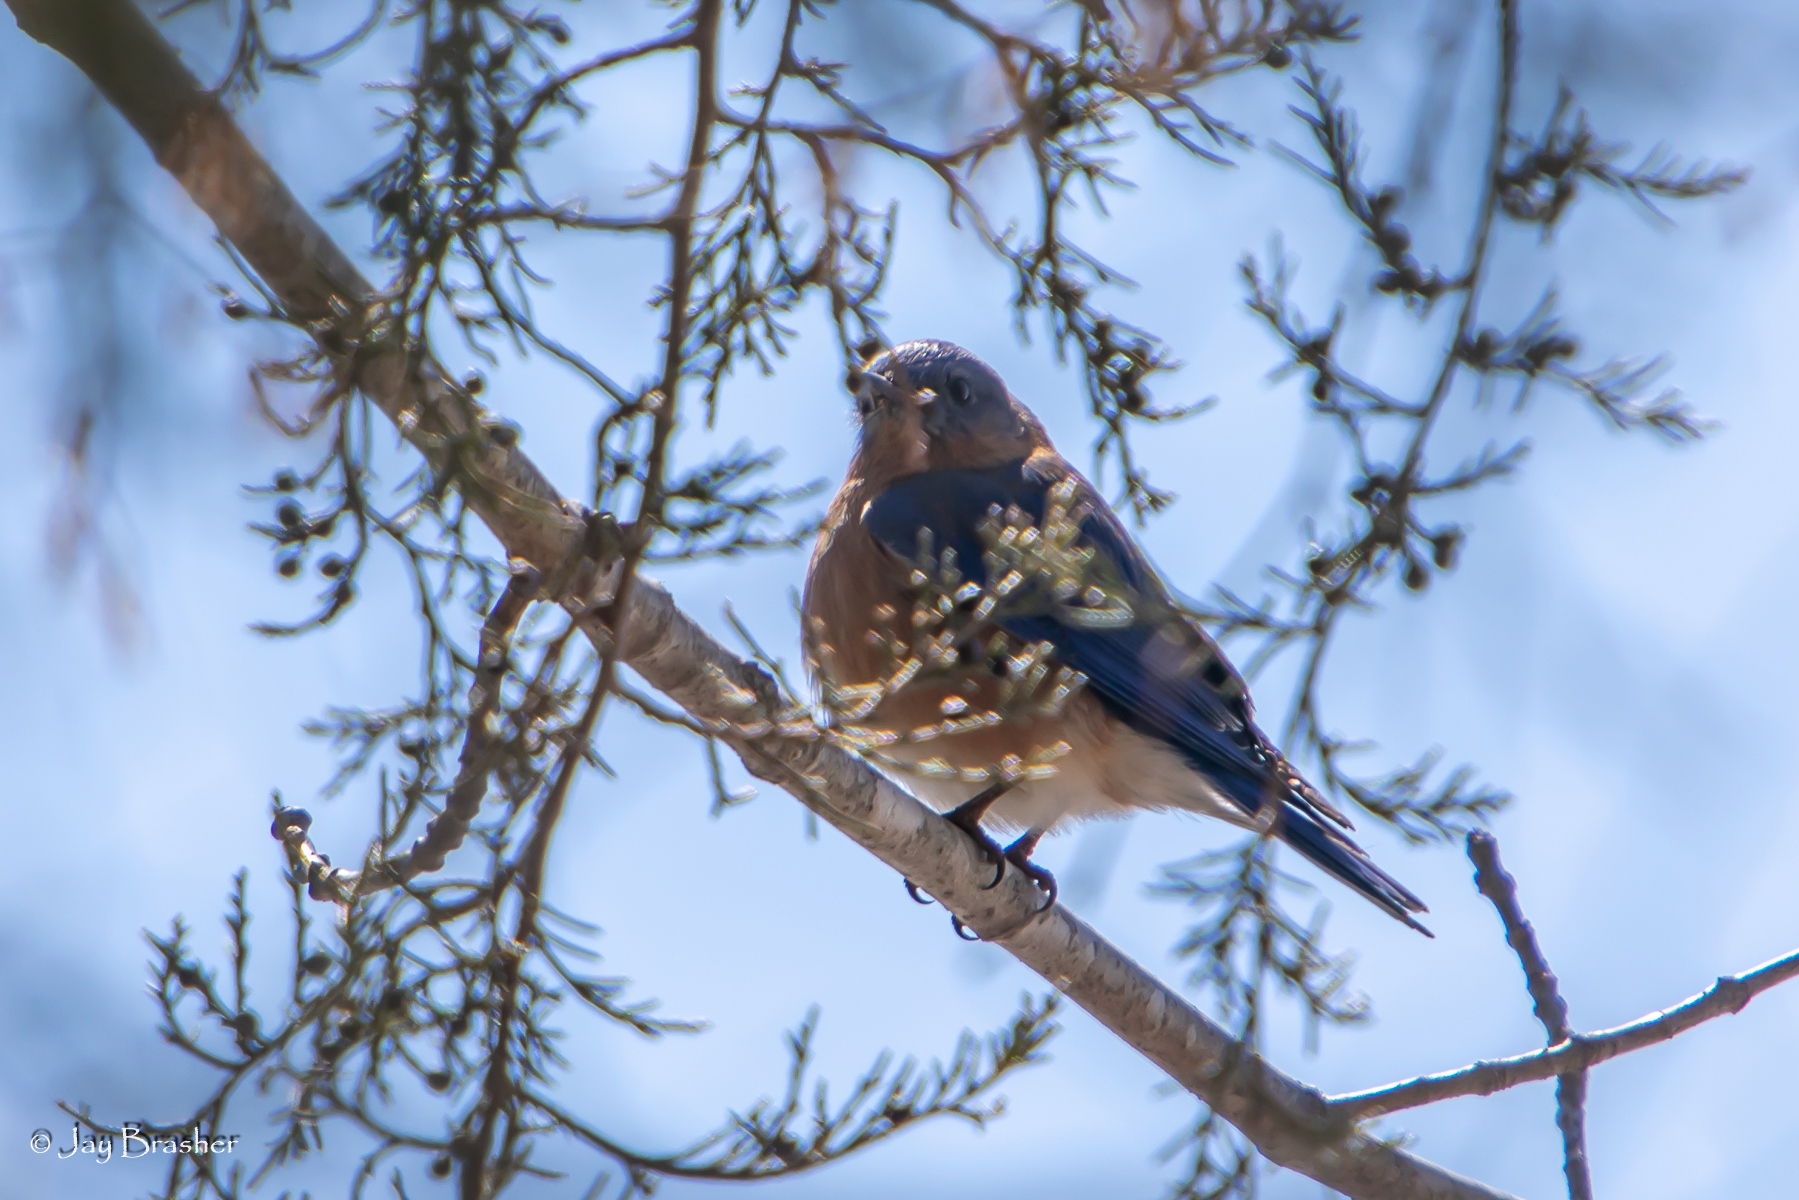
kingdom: Animalia
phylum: Chordata
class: Aves
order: Passeriformes
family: Turdidae
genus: Sialia
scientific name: Sialia sialis
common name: Eastern bluebird
